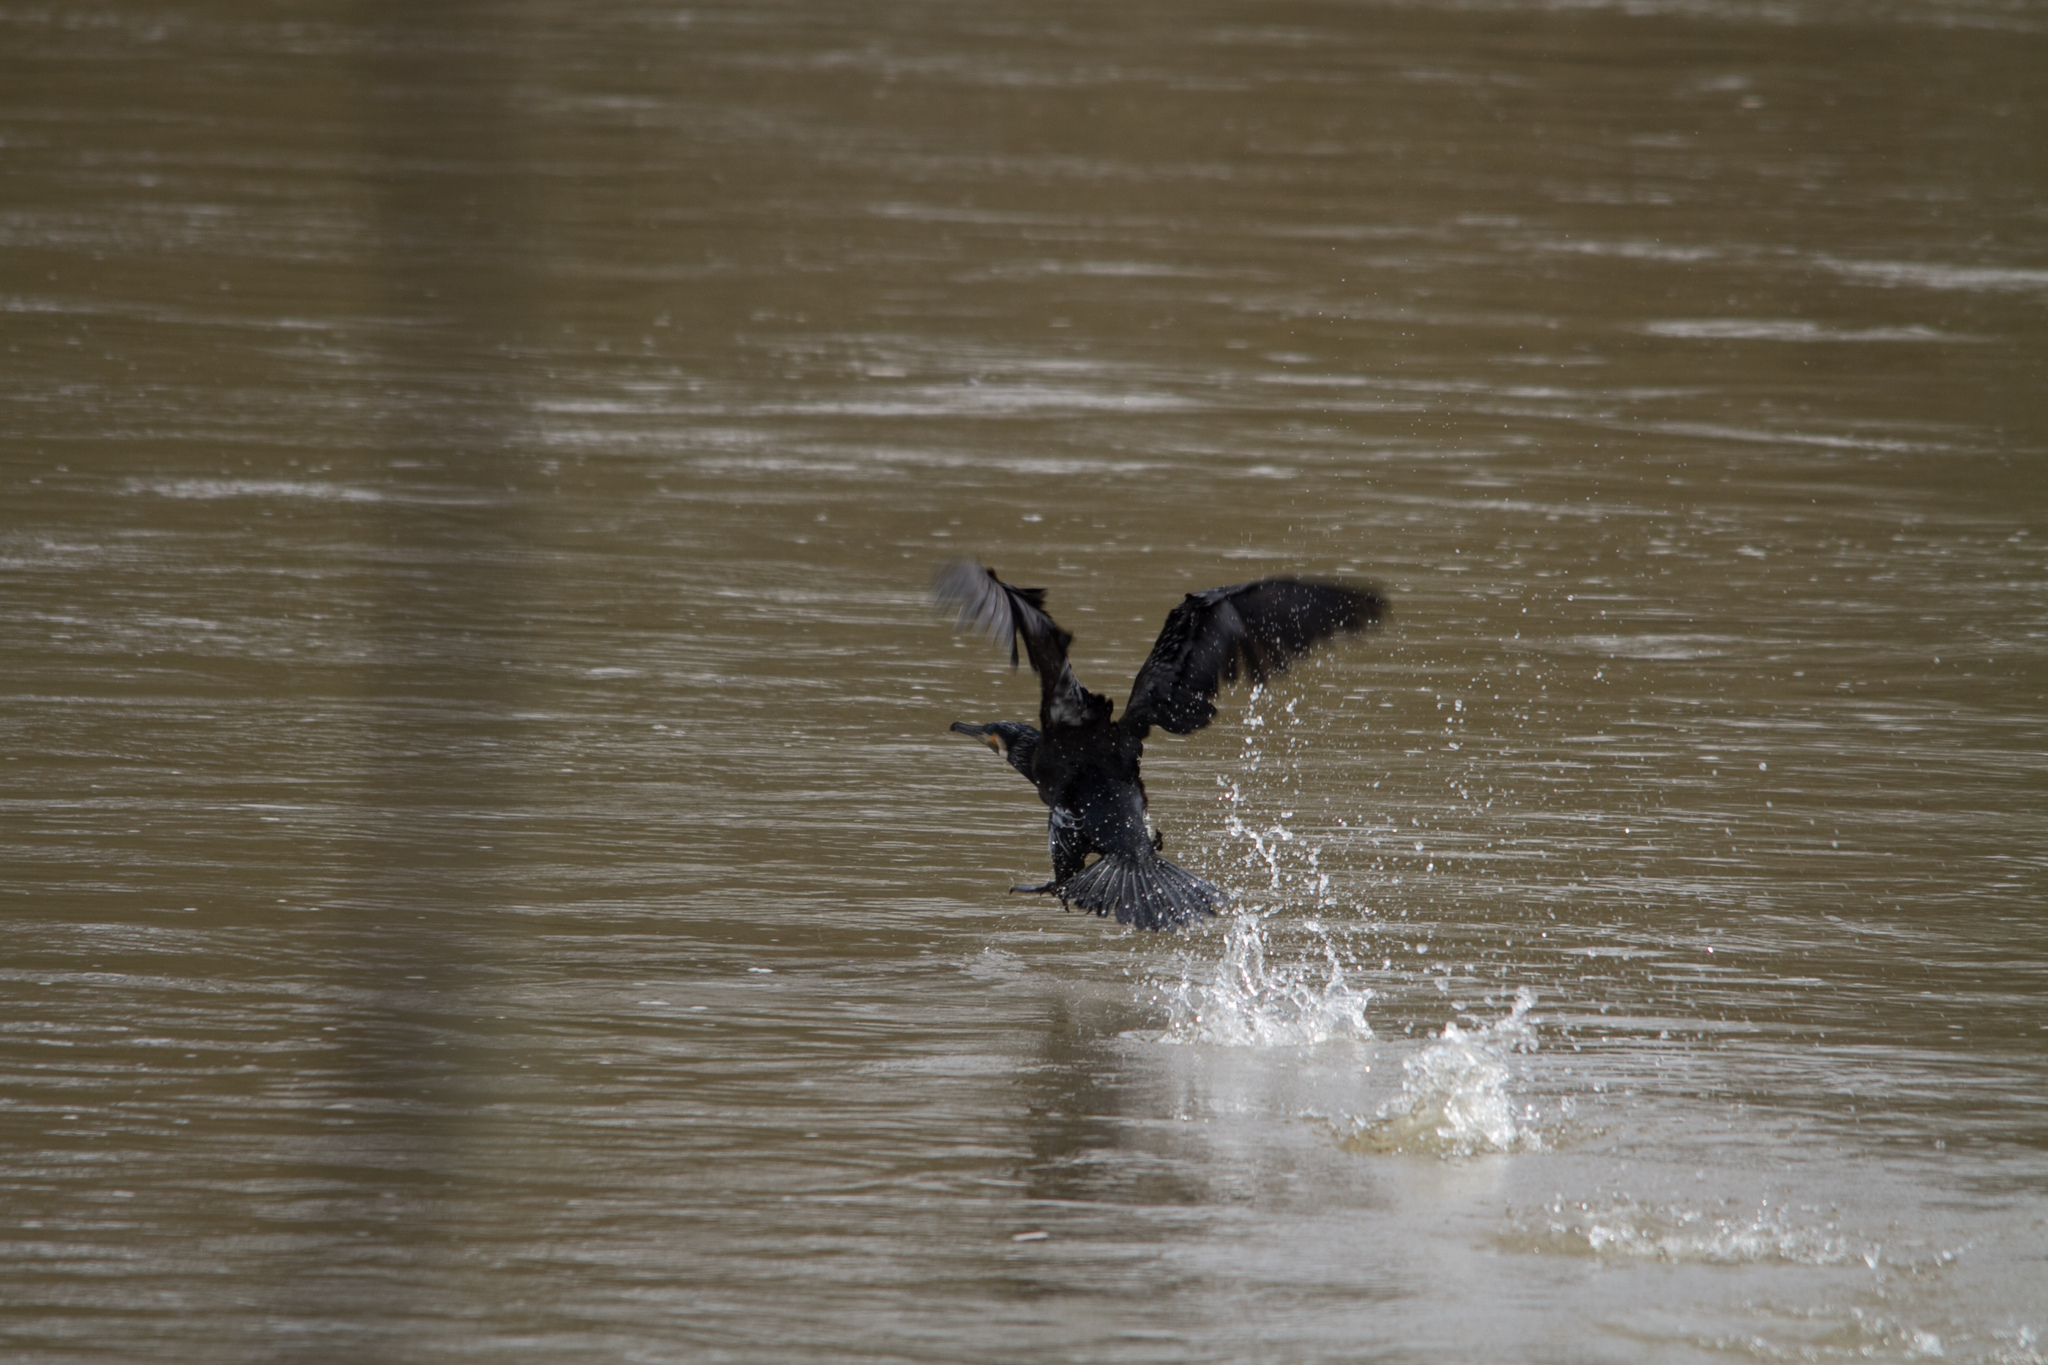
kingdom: Animalia
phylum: Chordata
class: Aves
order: Suliformes
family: Phalacrocoracidae
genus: Phalacrocorax
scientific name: Phalacrocorax carbo
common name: Great cormorant
